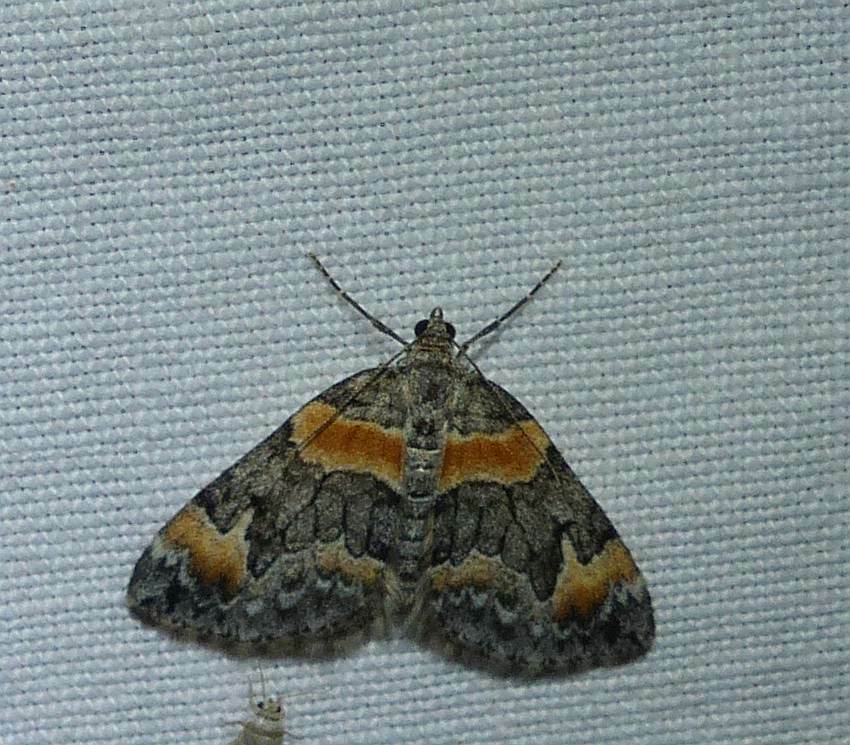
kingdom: Animalia
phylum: Arthropoda
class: Insecta
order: Lepidoptera
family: Geometridae
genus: Dysstroma
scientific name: Dysstroma hersiliata
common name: Orange-barred carpet
